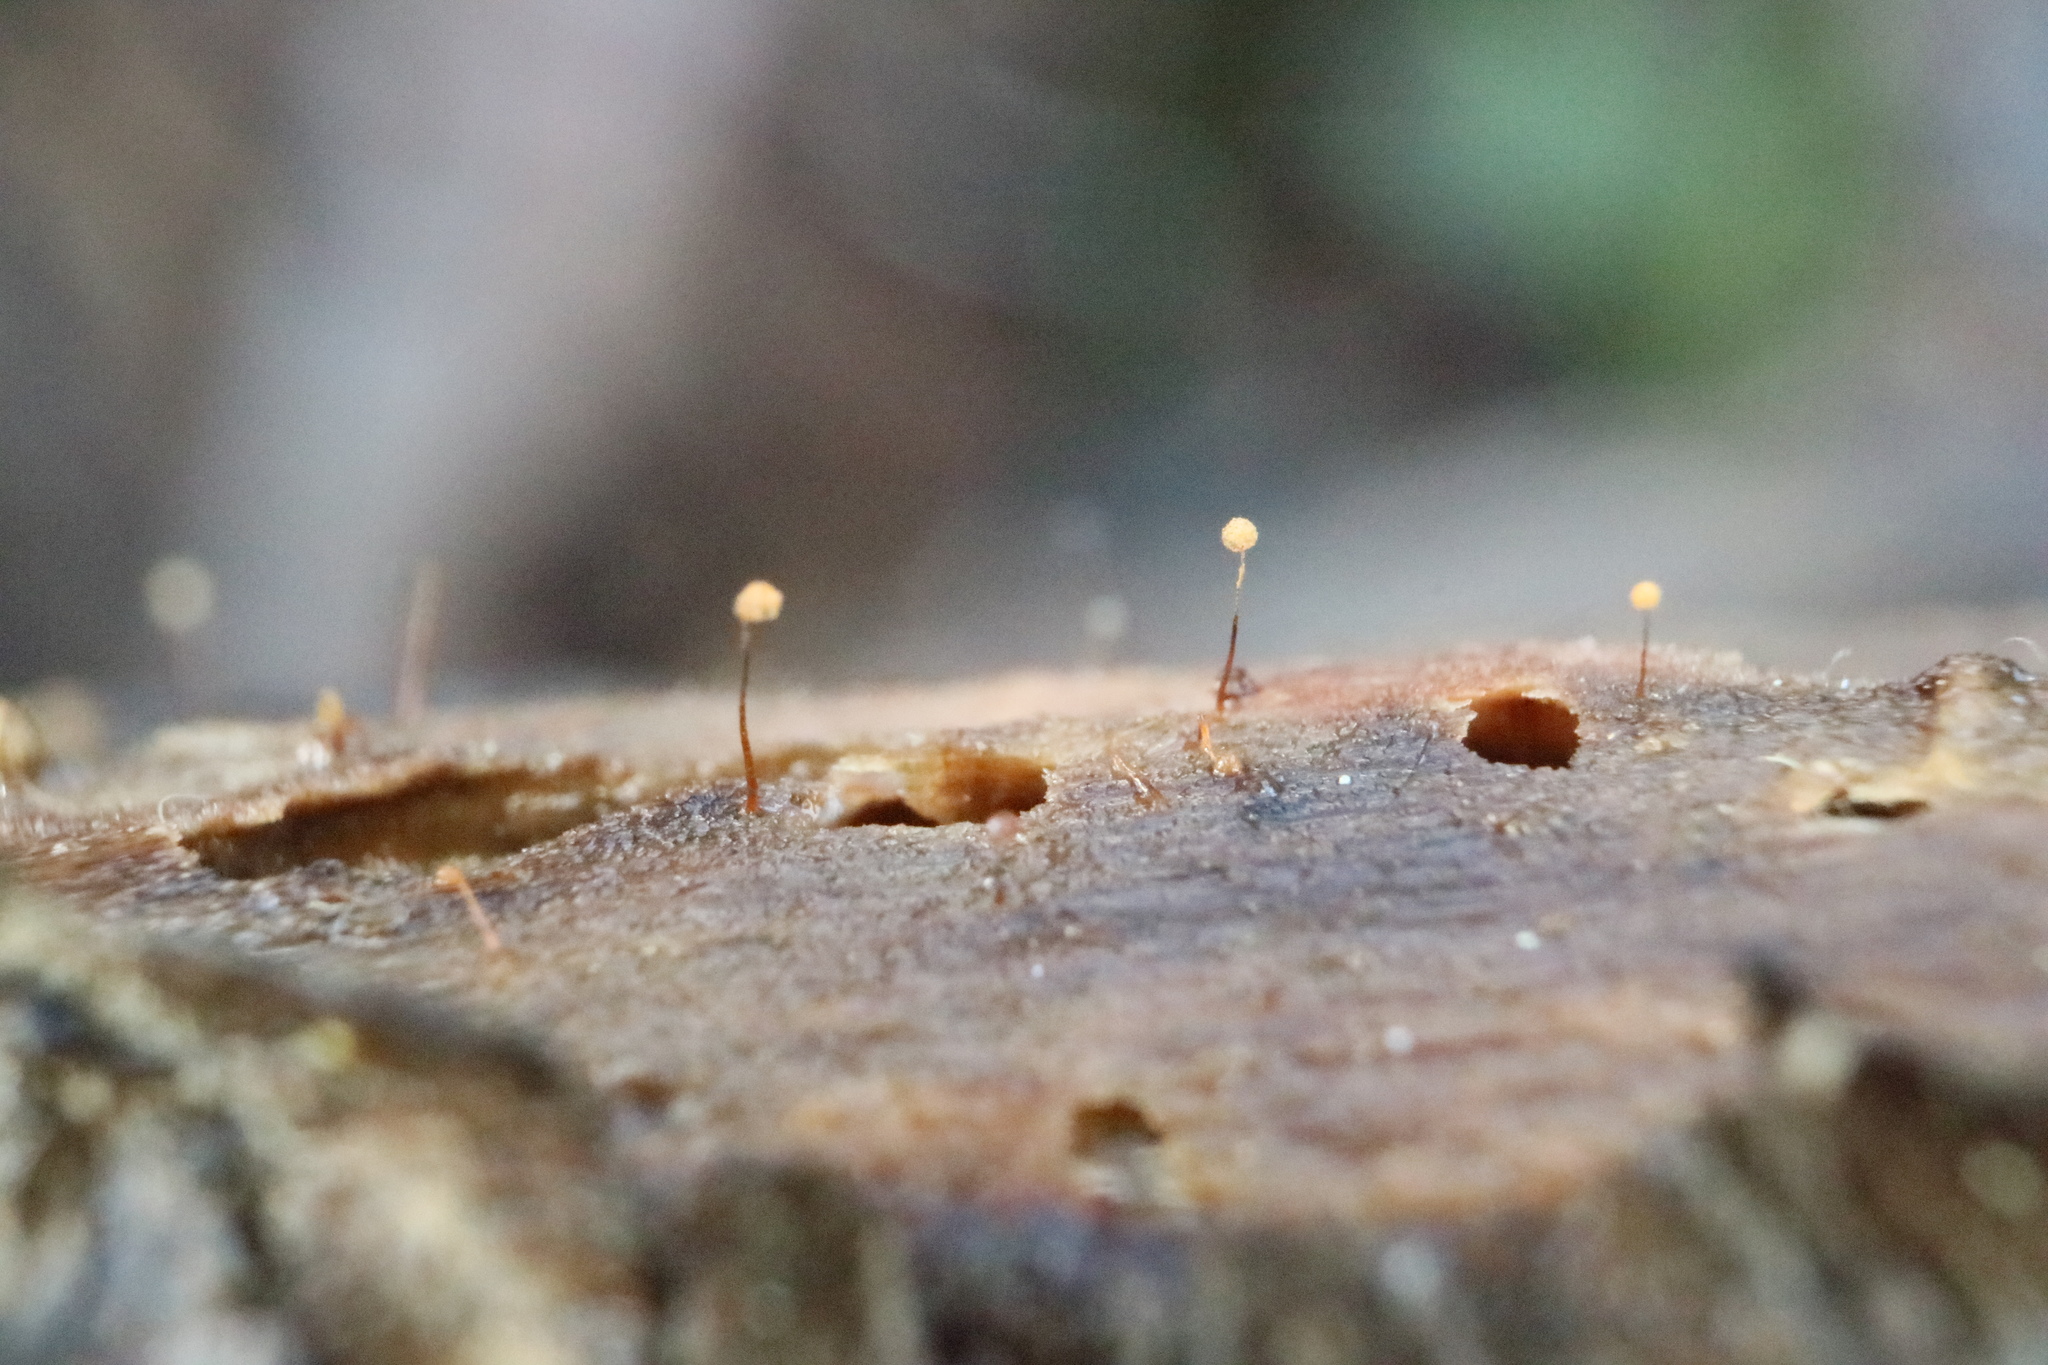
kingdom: Protozoa
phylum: Mycetozoa
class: Myxomycetes
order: Cribrariales
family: Cribrariaceae
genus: Cribraria
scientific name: Cribraria microcarpa
